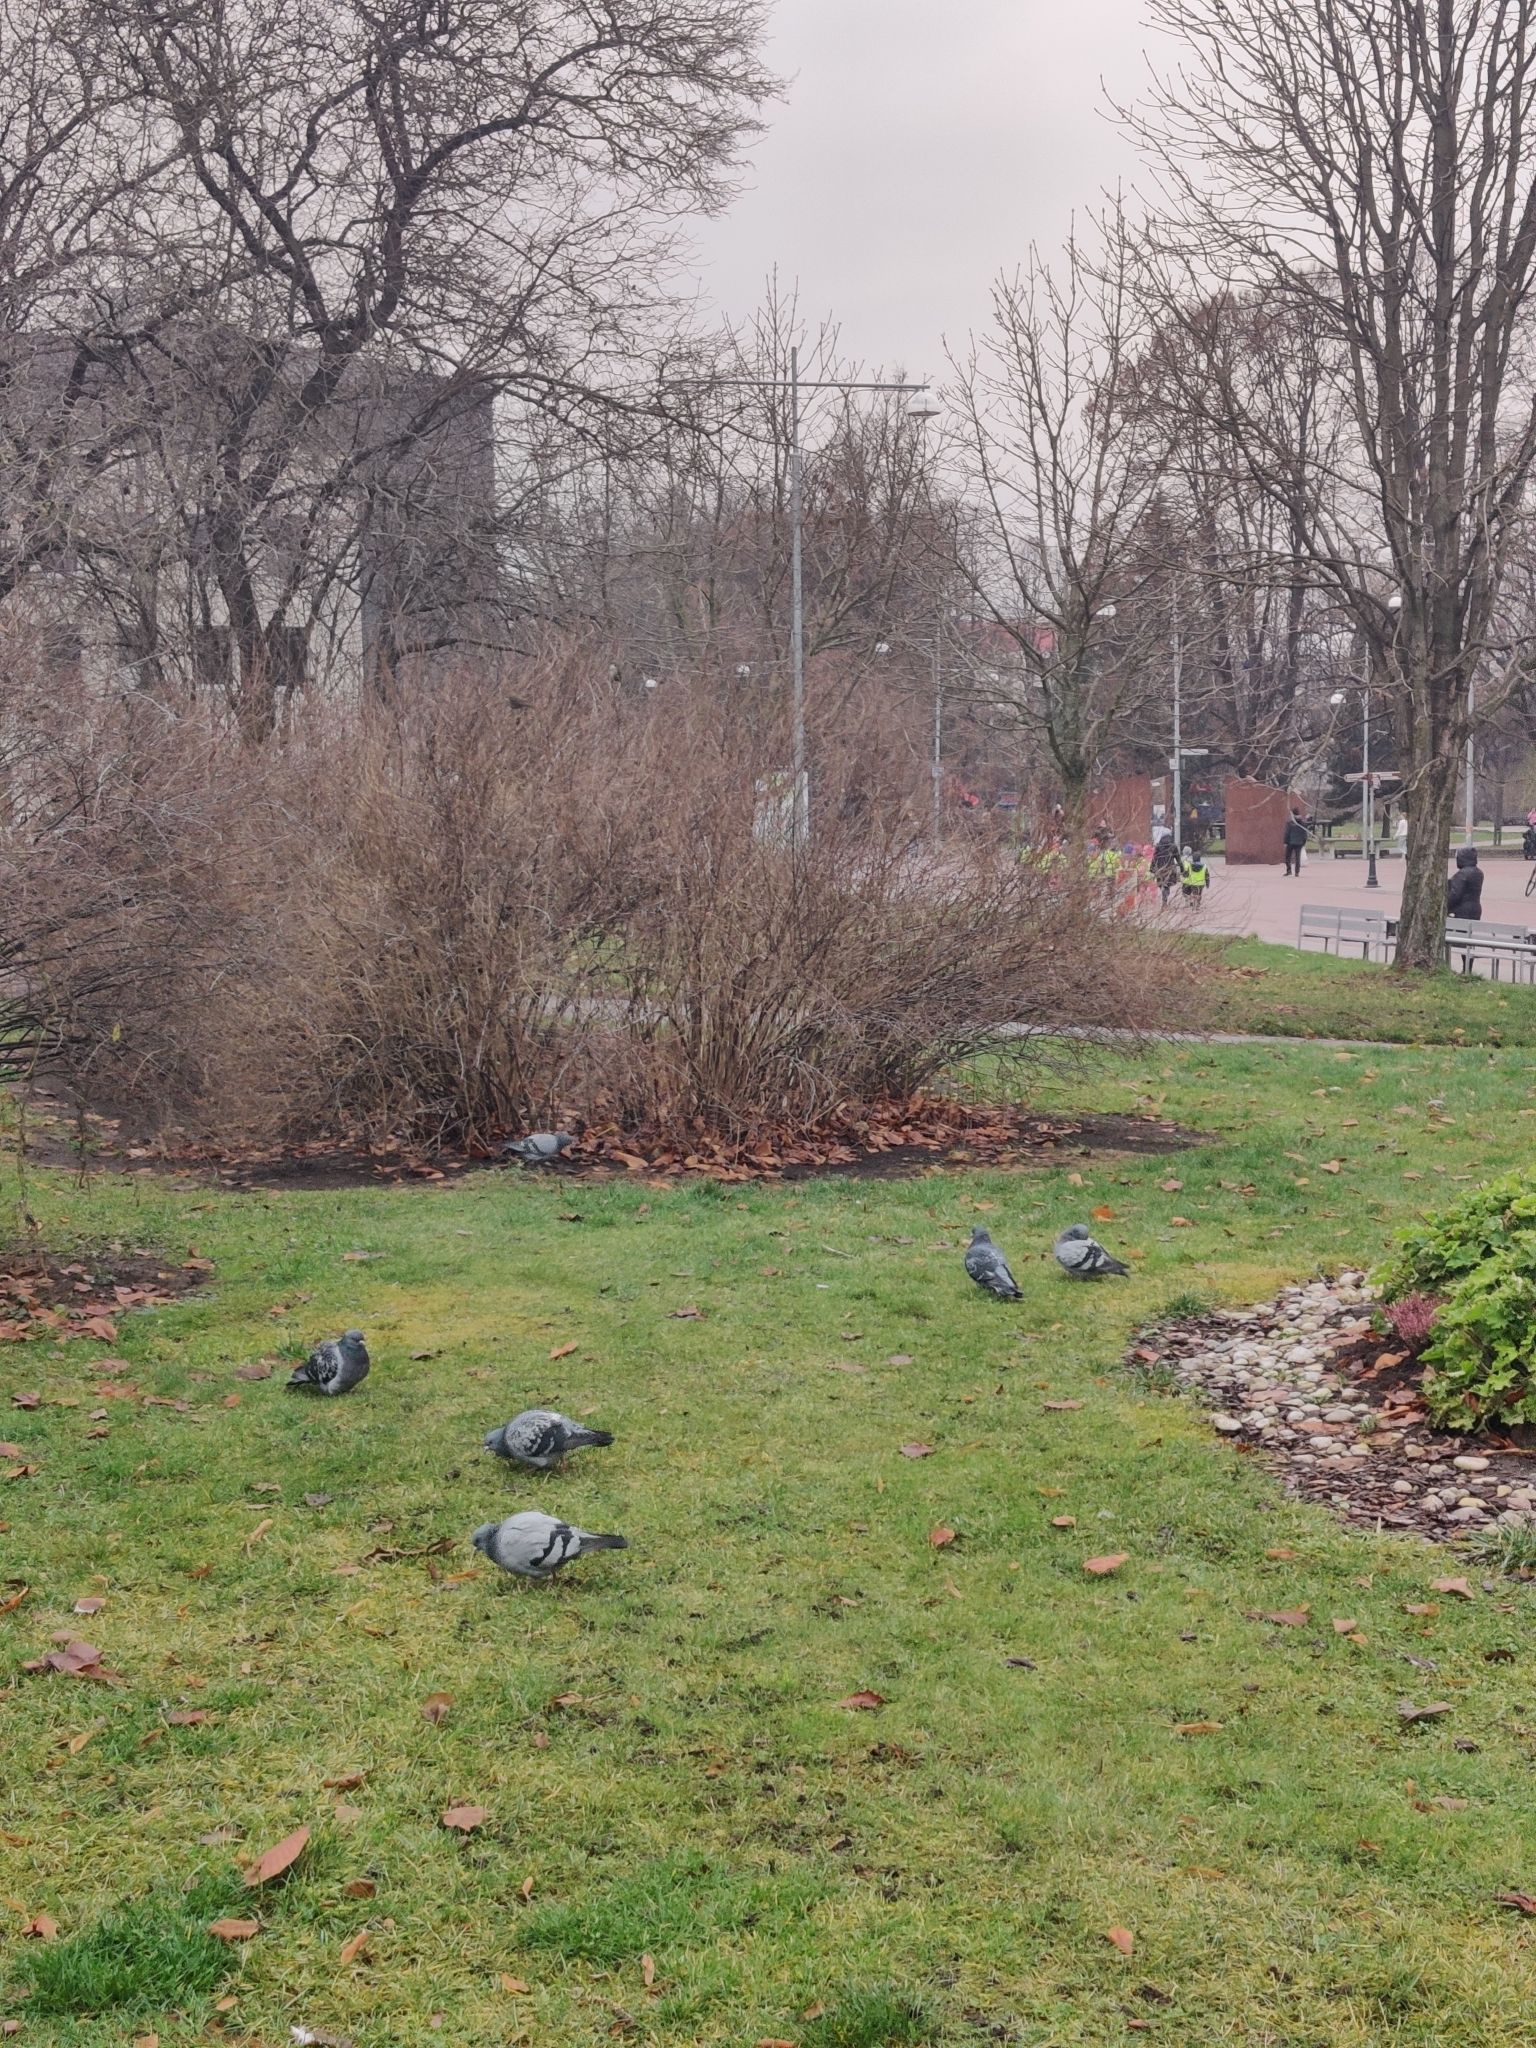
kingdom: Animalia
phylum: Chordata
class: Aves
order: Columbiformes
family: Columbidae
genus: Columba
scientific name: Columba livia
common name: Rock pigeon
